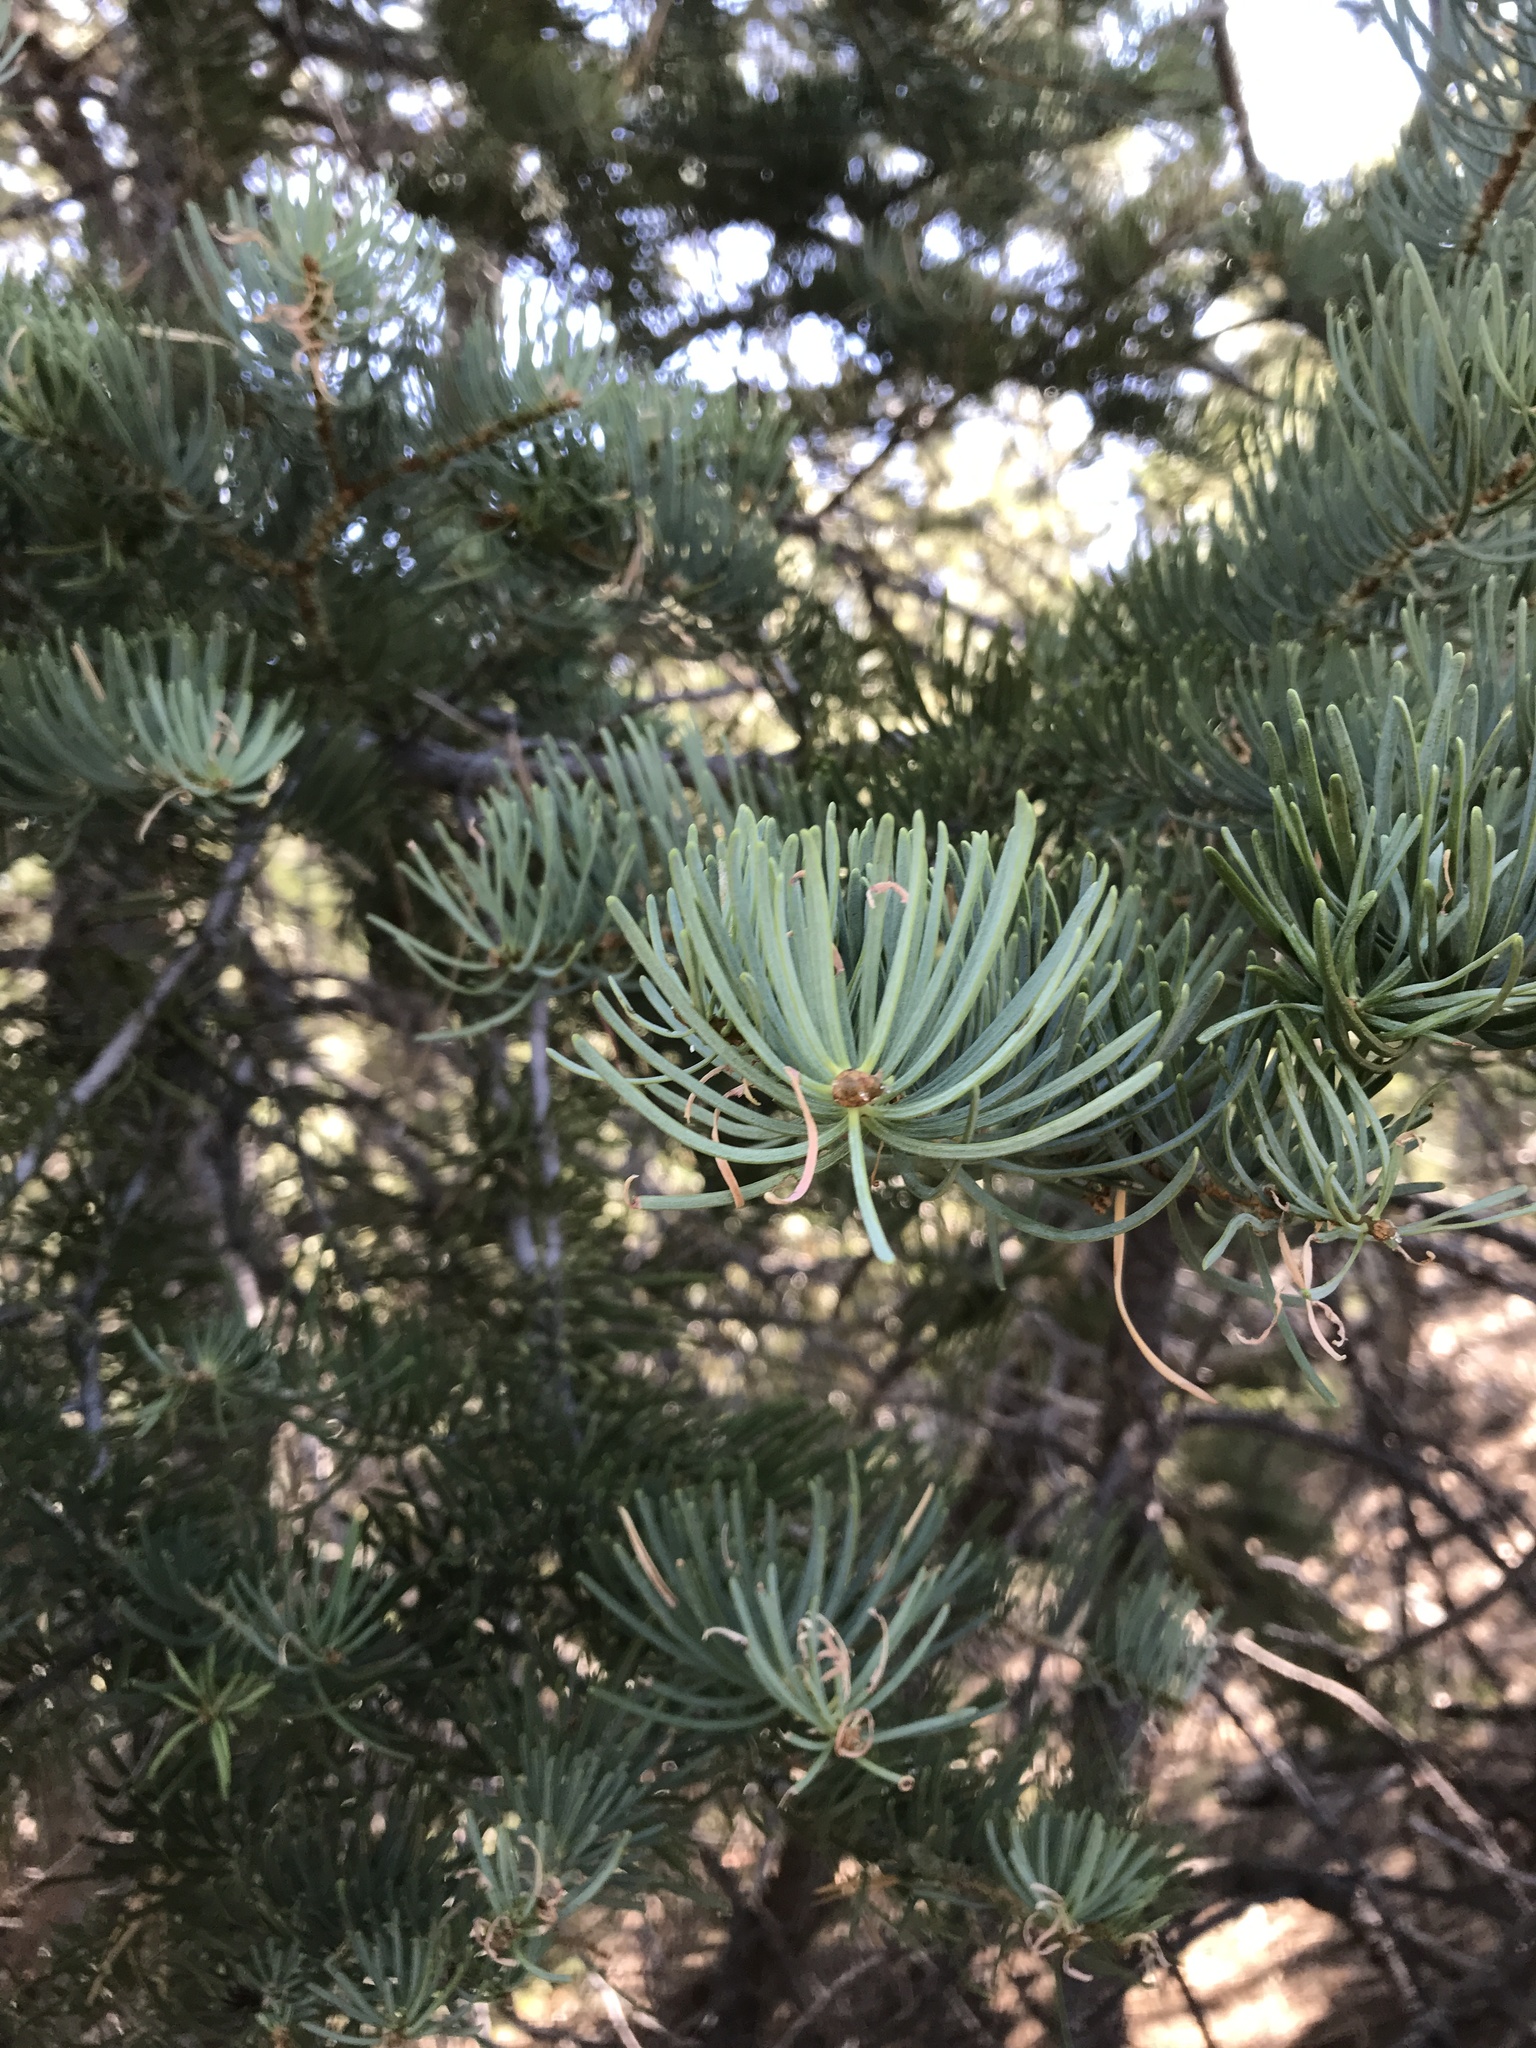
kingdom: Plantae
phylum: Tracheophyta
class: Pinopsida
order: Pinales
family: Pinaceae
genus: Abies
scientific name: Abies concolor
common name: Colorado fir
